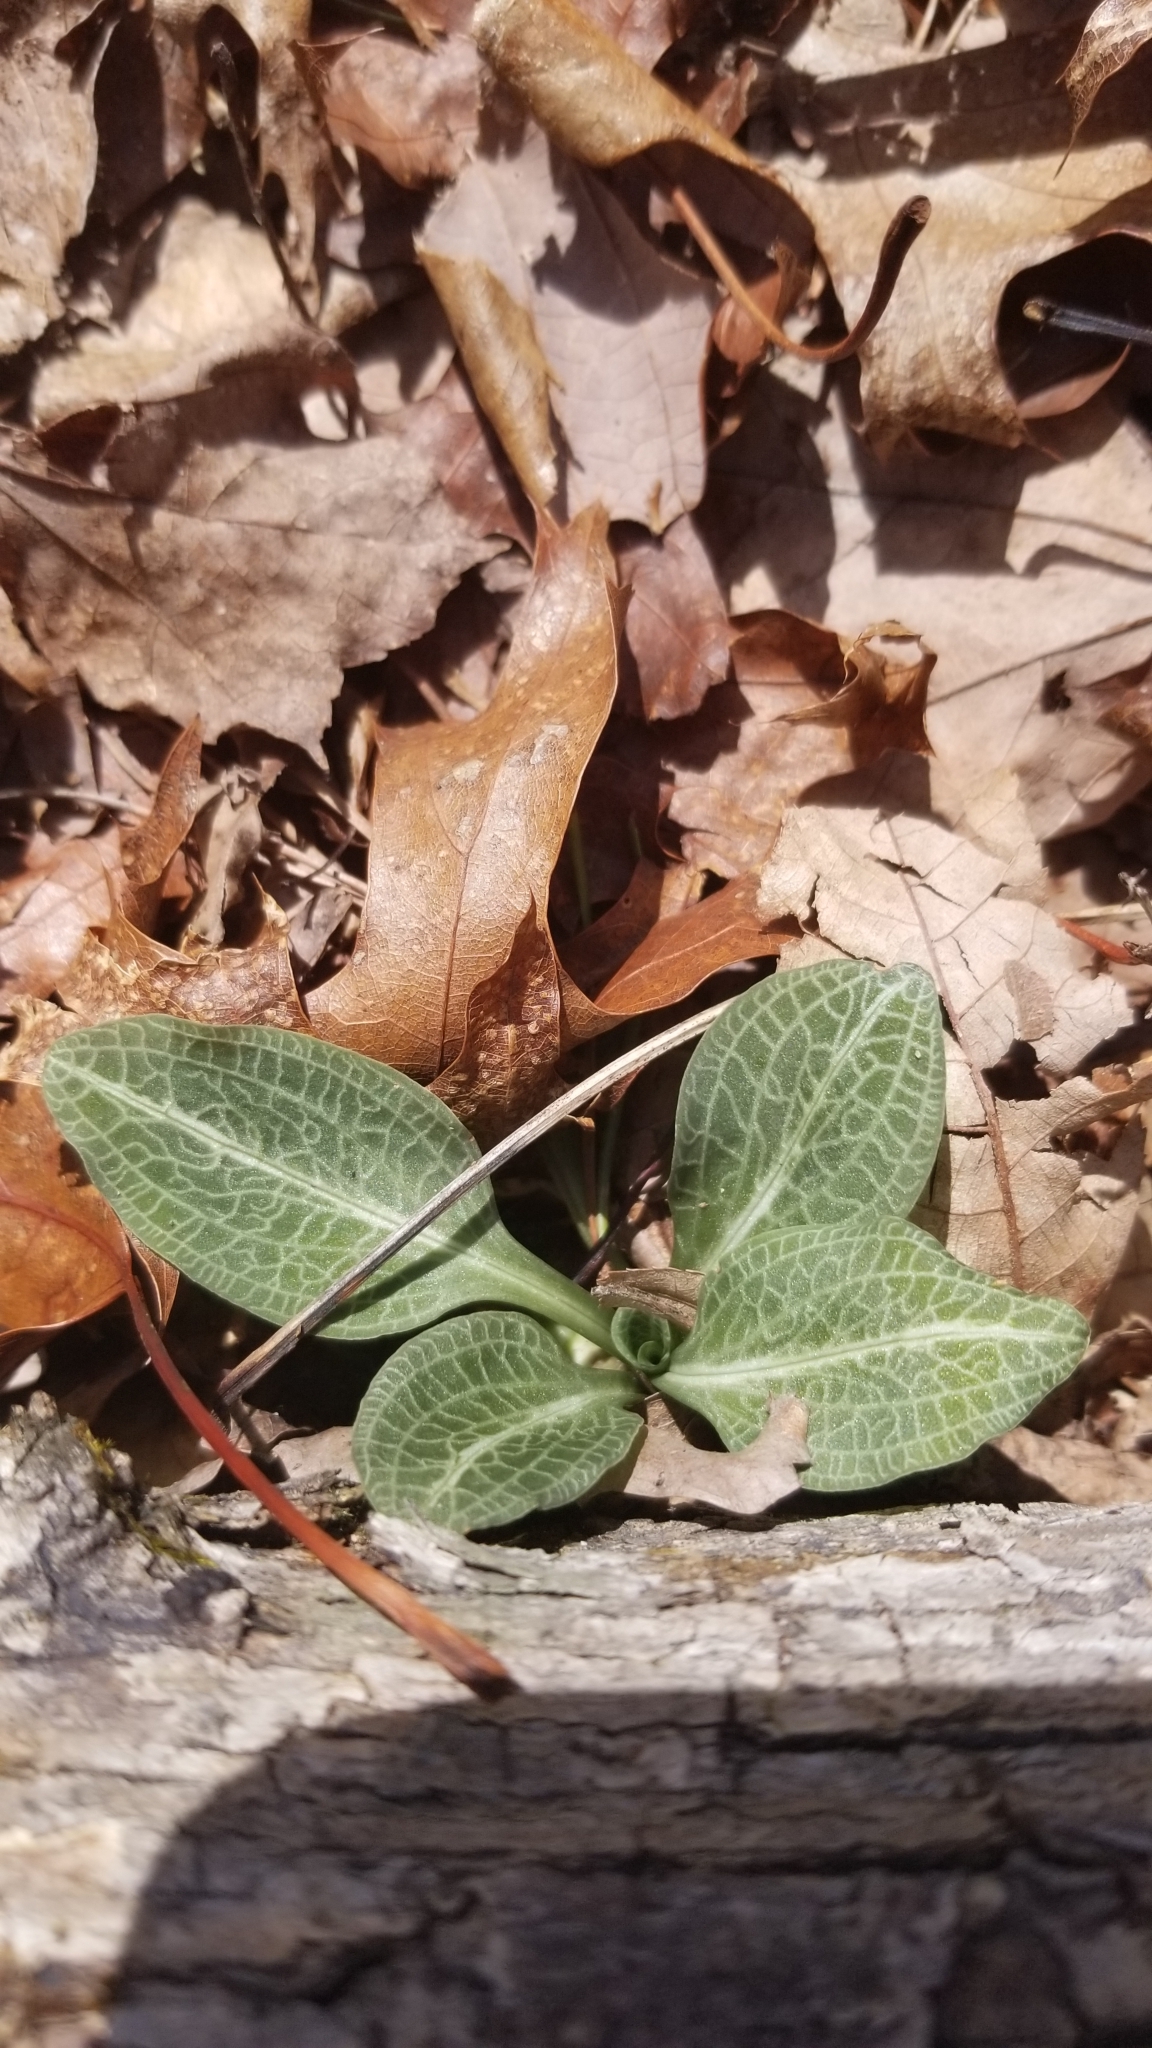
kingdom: Plantae
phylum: Tracheophyta
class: Liliopsida
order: Asparagales
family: Orchidaceae
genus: Goodyera
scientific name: Goodyera pubescens
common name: Downy rattlesnake-plantain
